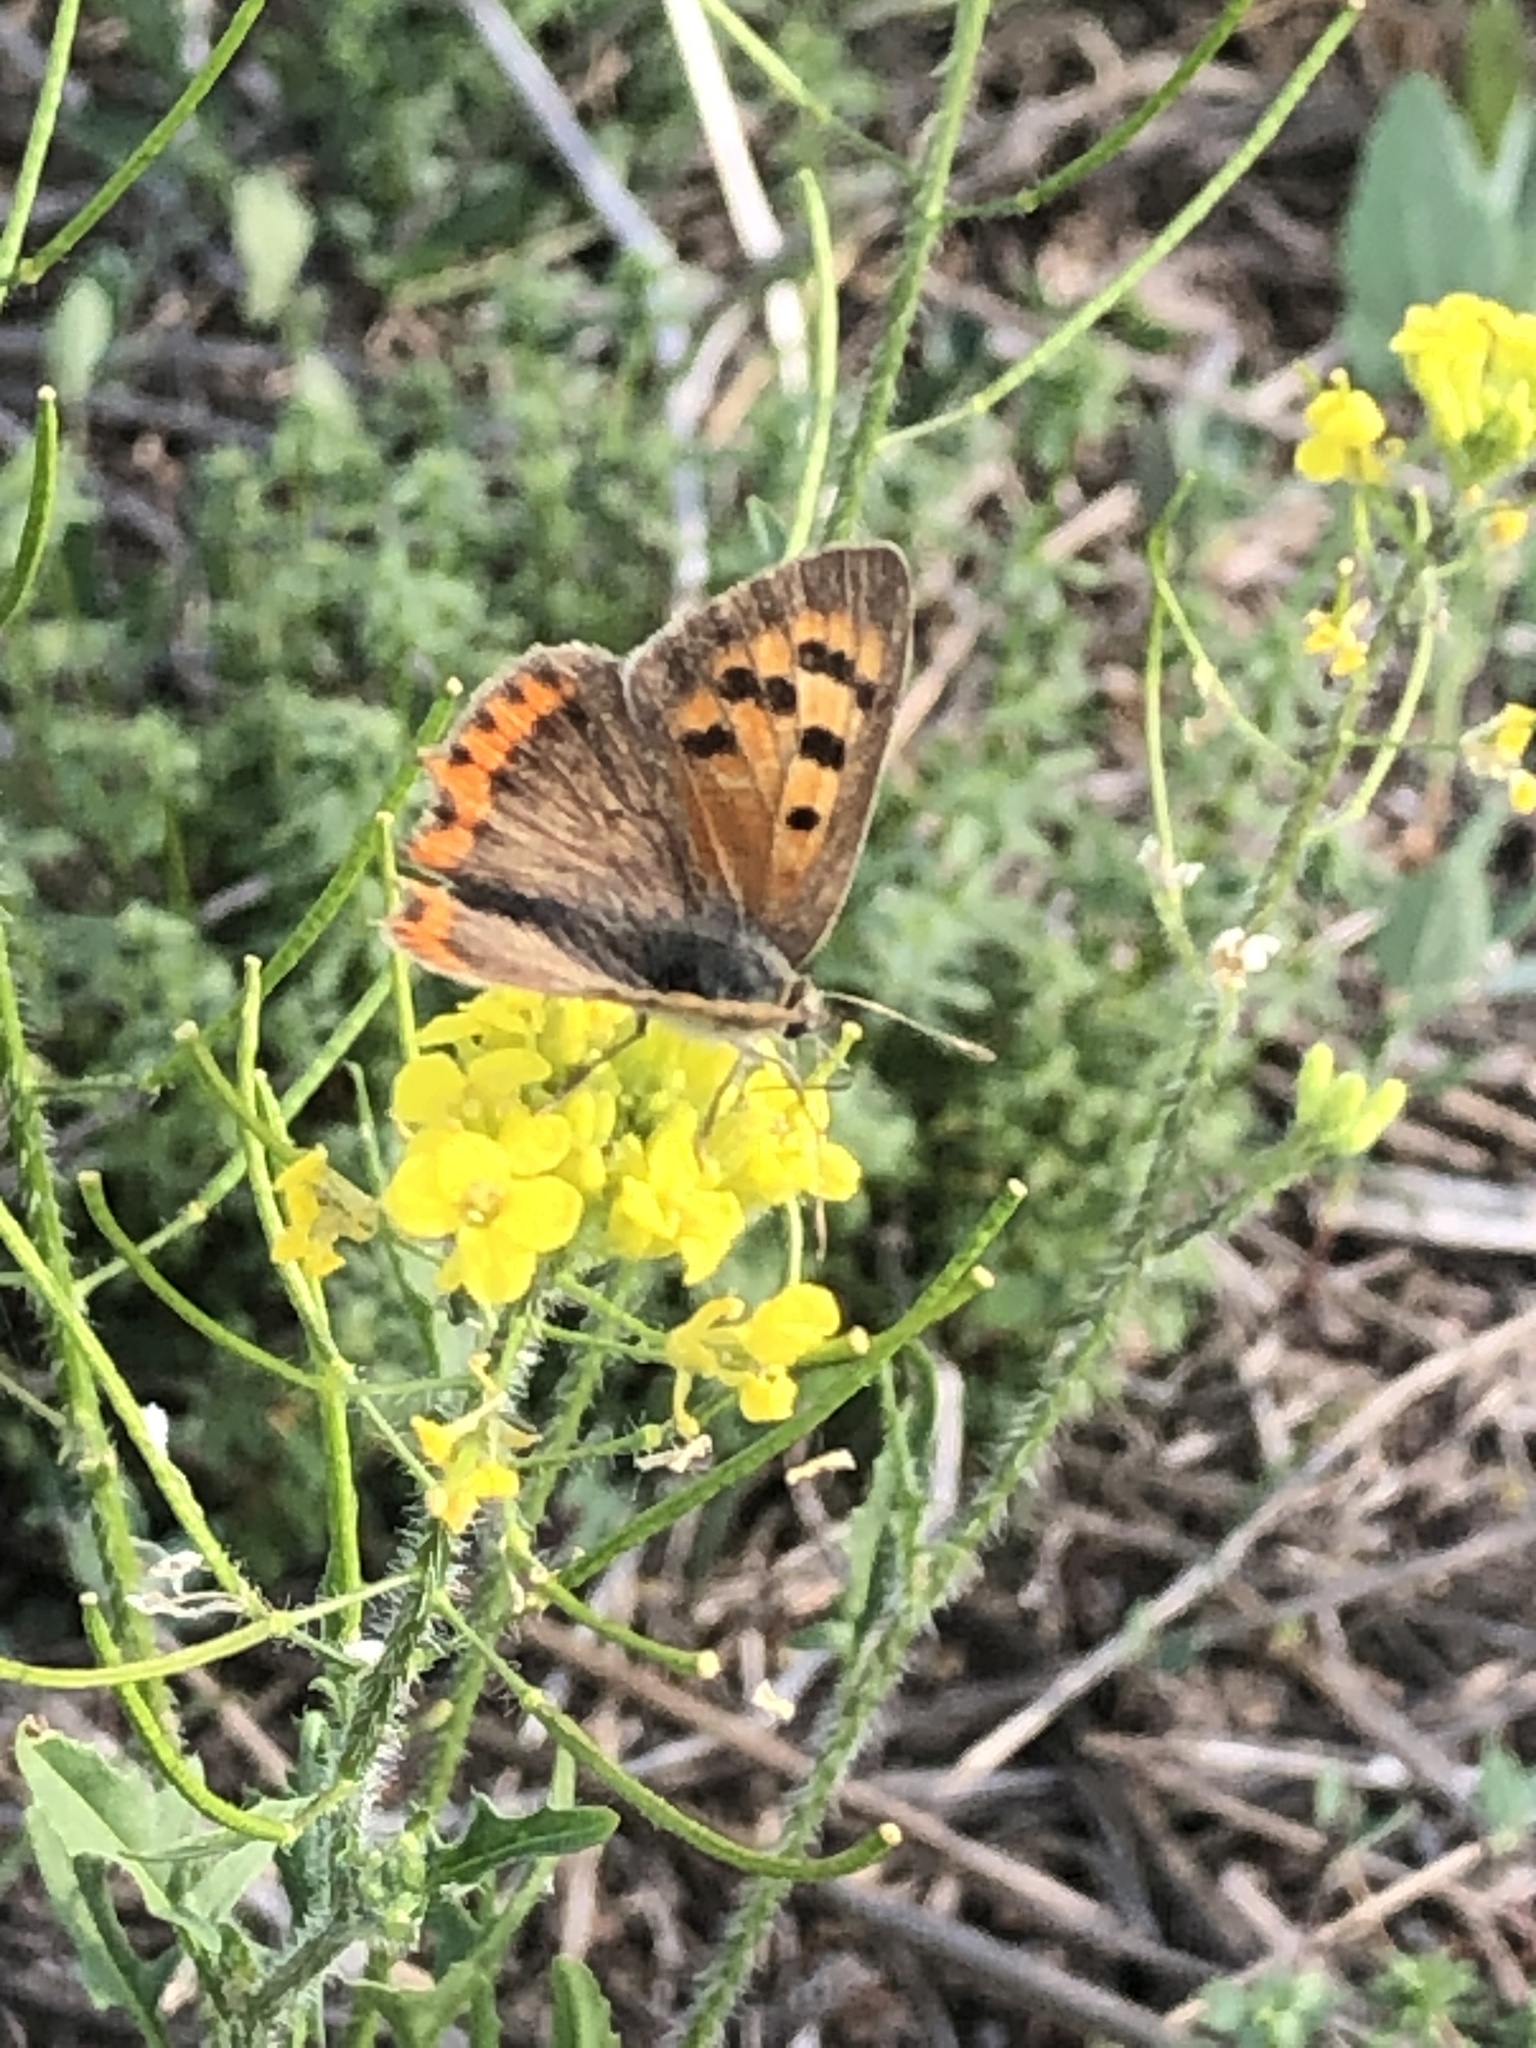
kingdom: Animalia
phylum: Arthropoda
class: Insecta
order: Lepidoptera
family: Lycaenidae
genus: Lycaena
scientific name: Lycaena phlaeas
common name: Small copper
